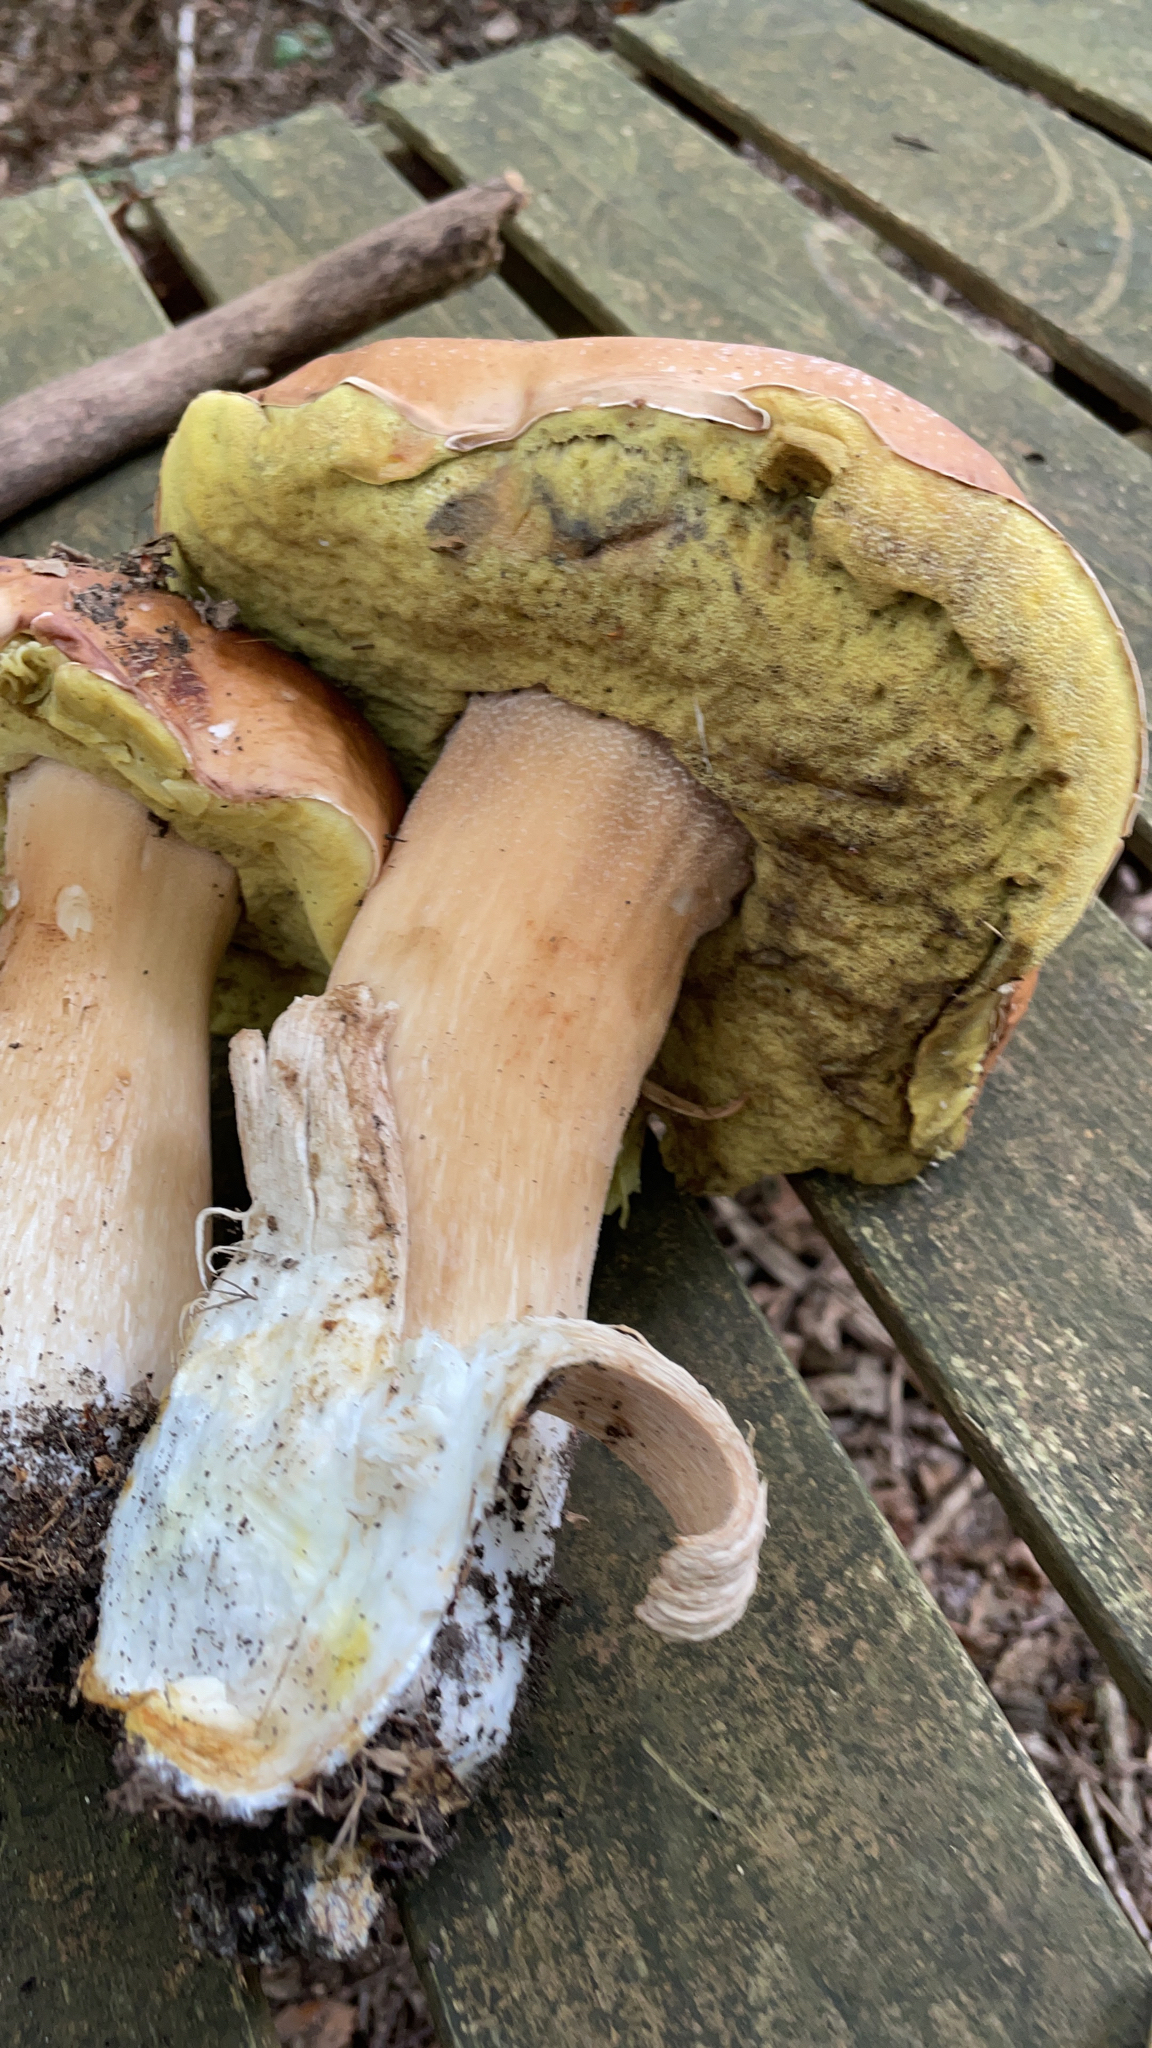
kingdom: Fungi
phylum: Basidiomycota
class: Agaricomycetes
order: Boletales
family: Boletaceae
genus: Boletus
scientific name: Boletus edulis
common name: Cep
